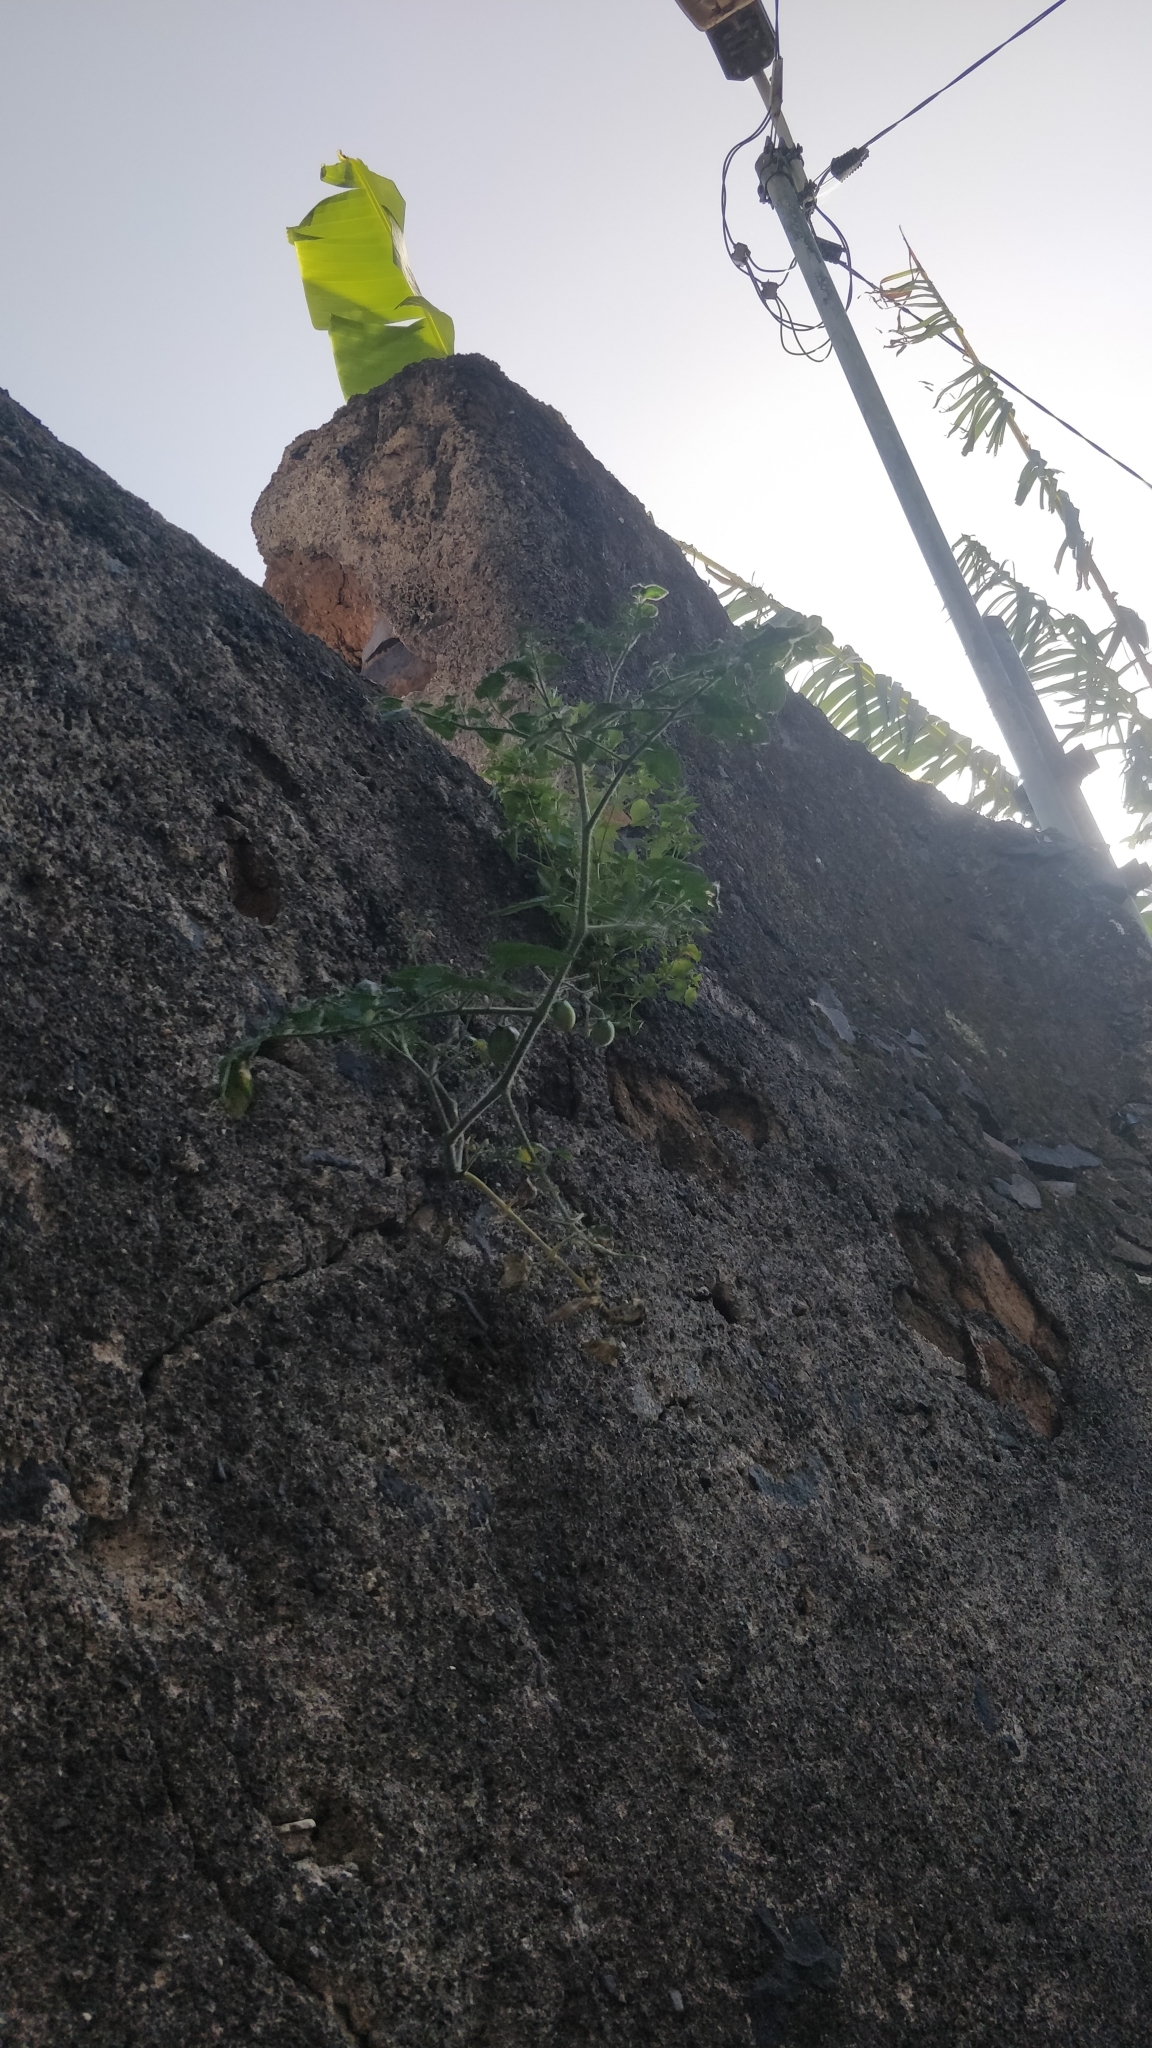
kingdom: Plantae
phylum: Tracheophyta
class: Magnoliopsida
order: Solanales
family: Solanaceae
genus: Solanum
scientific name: Solanum lycopersicum
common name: Garden tomato
